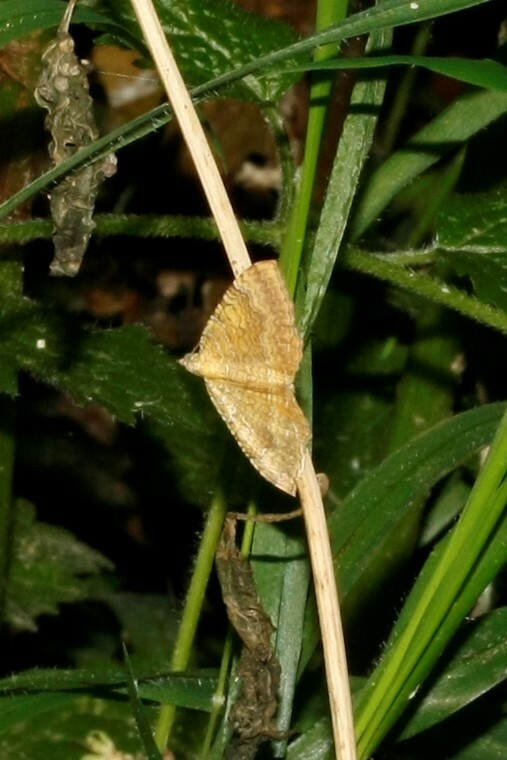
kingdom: Animalia
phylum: Arthropoda
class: Insecta
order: Lepidoptera
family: Geometridae
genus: Camptogramma
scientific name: Camptogramma bilineata
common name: Yellow shell
